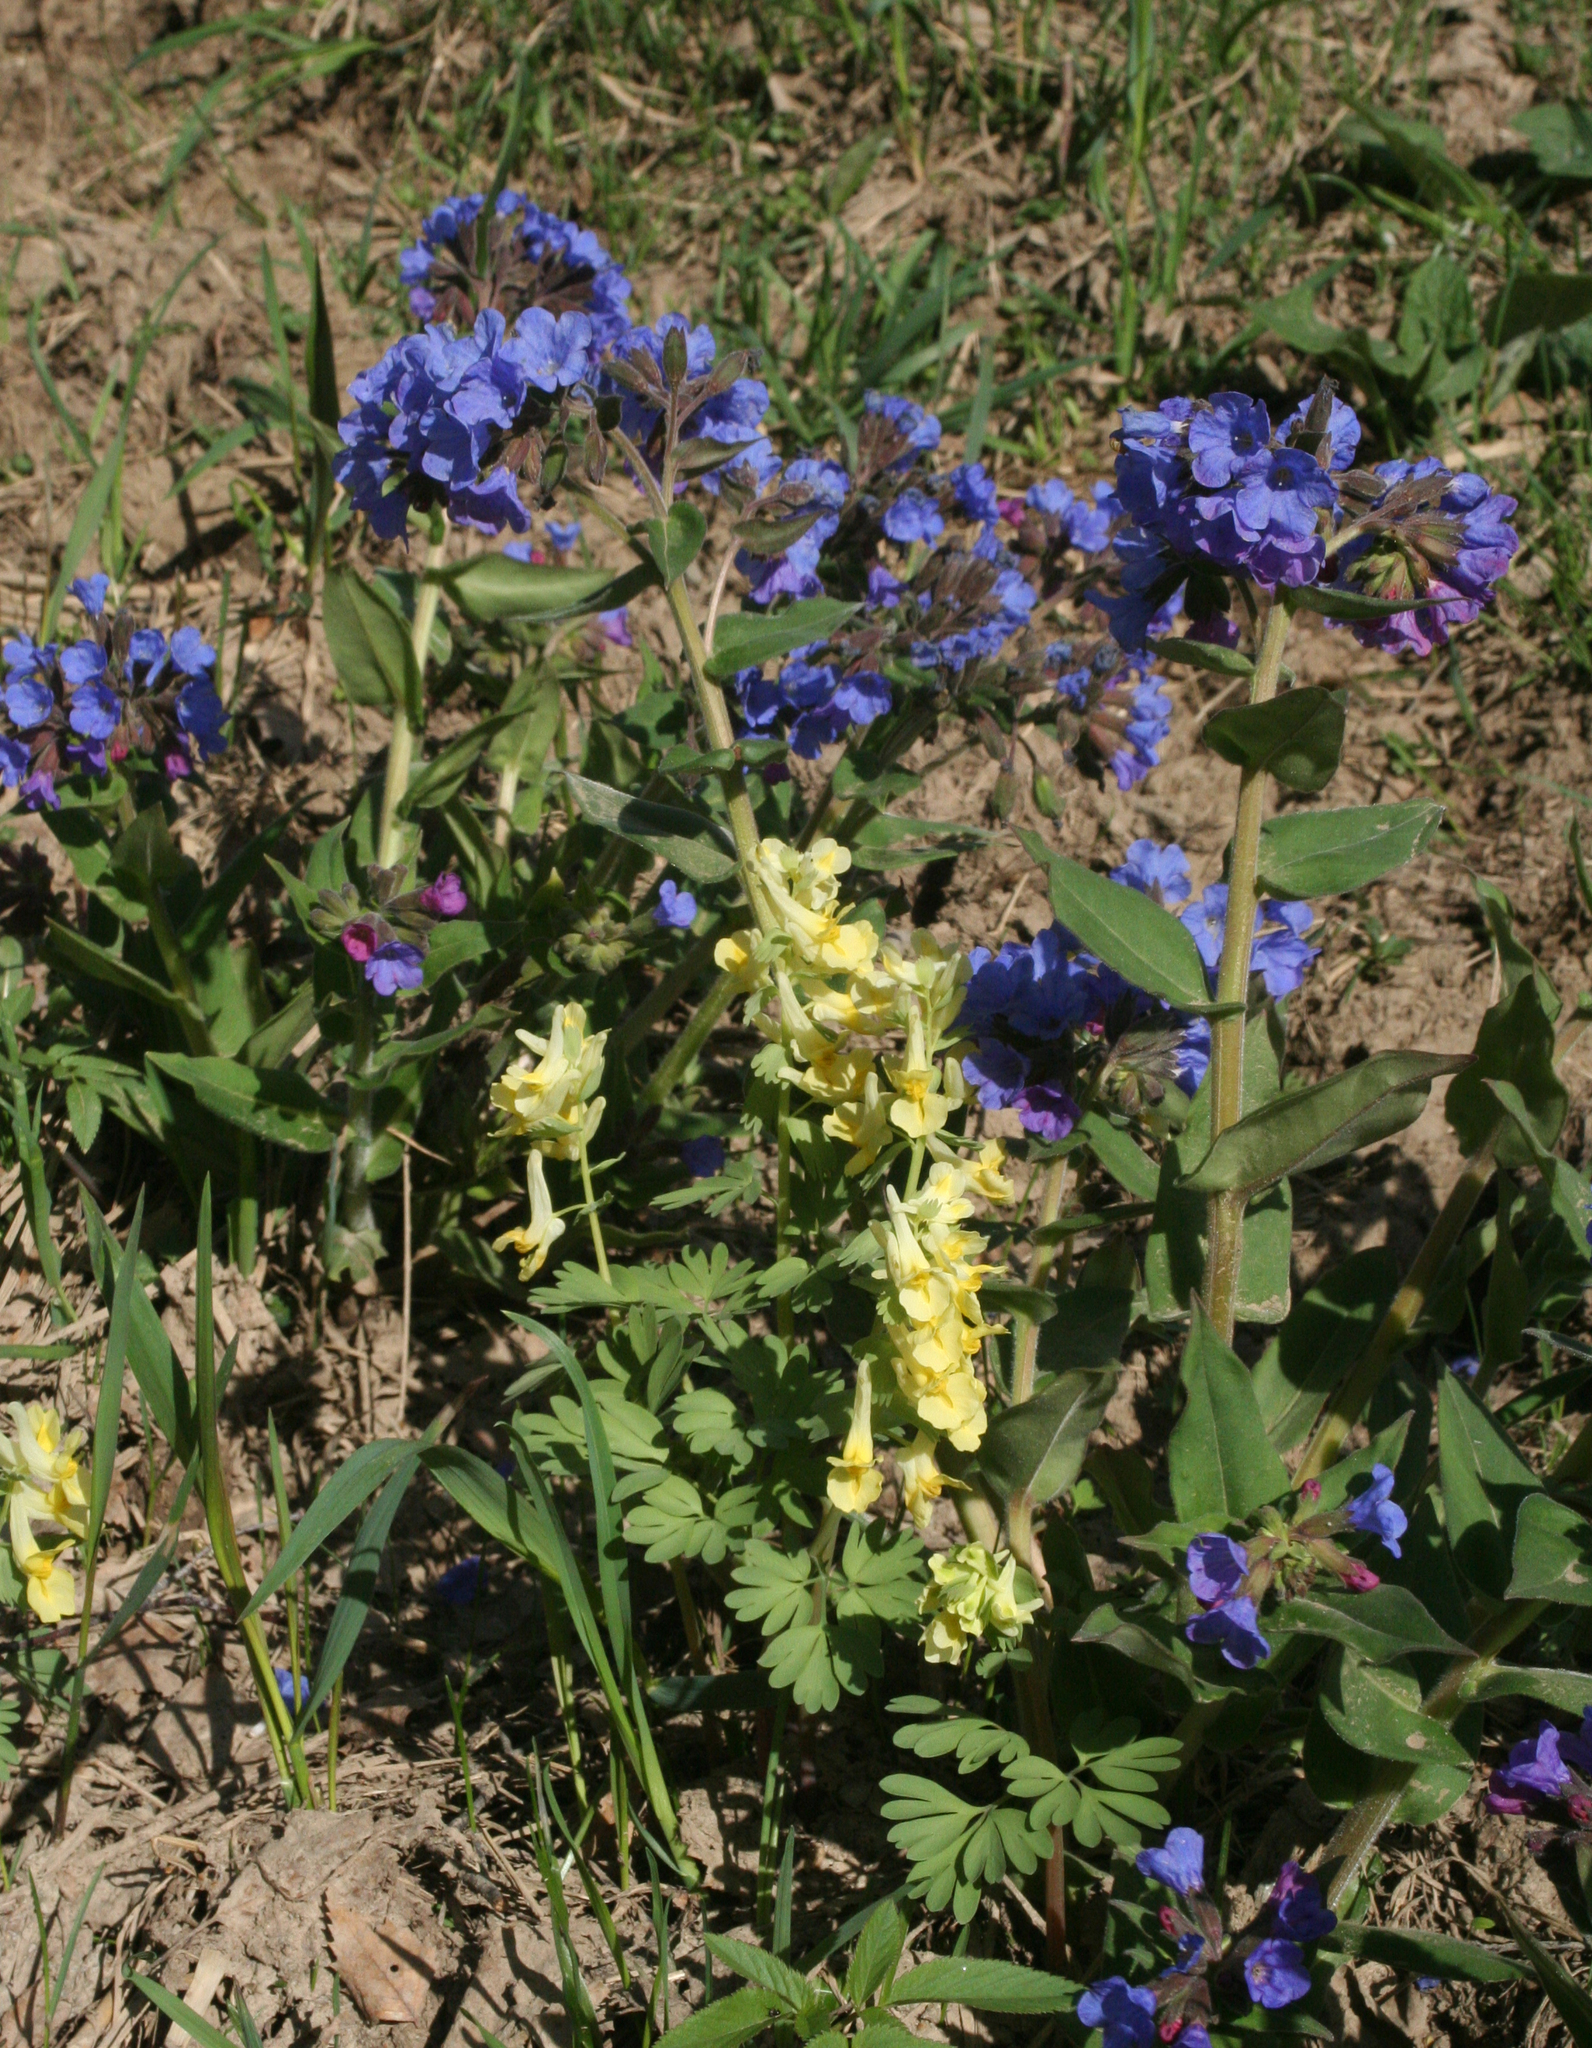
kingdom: Plantae
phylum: Tracheophyta
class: Magnoliopsida
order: Ranunculales
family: Papaveraceae
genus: Corydalis
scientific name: Corydalis bracteata
